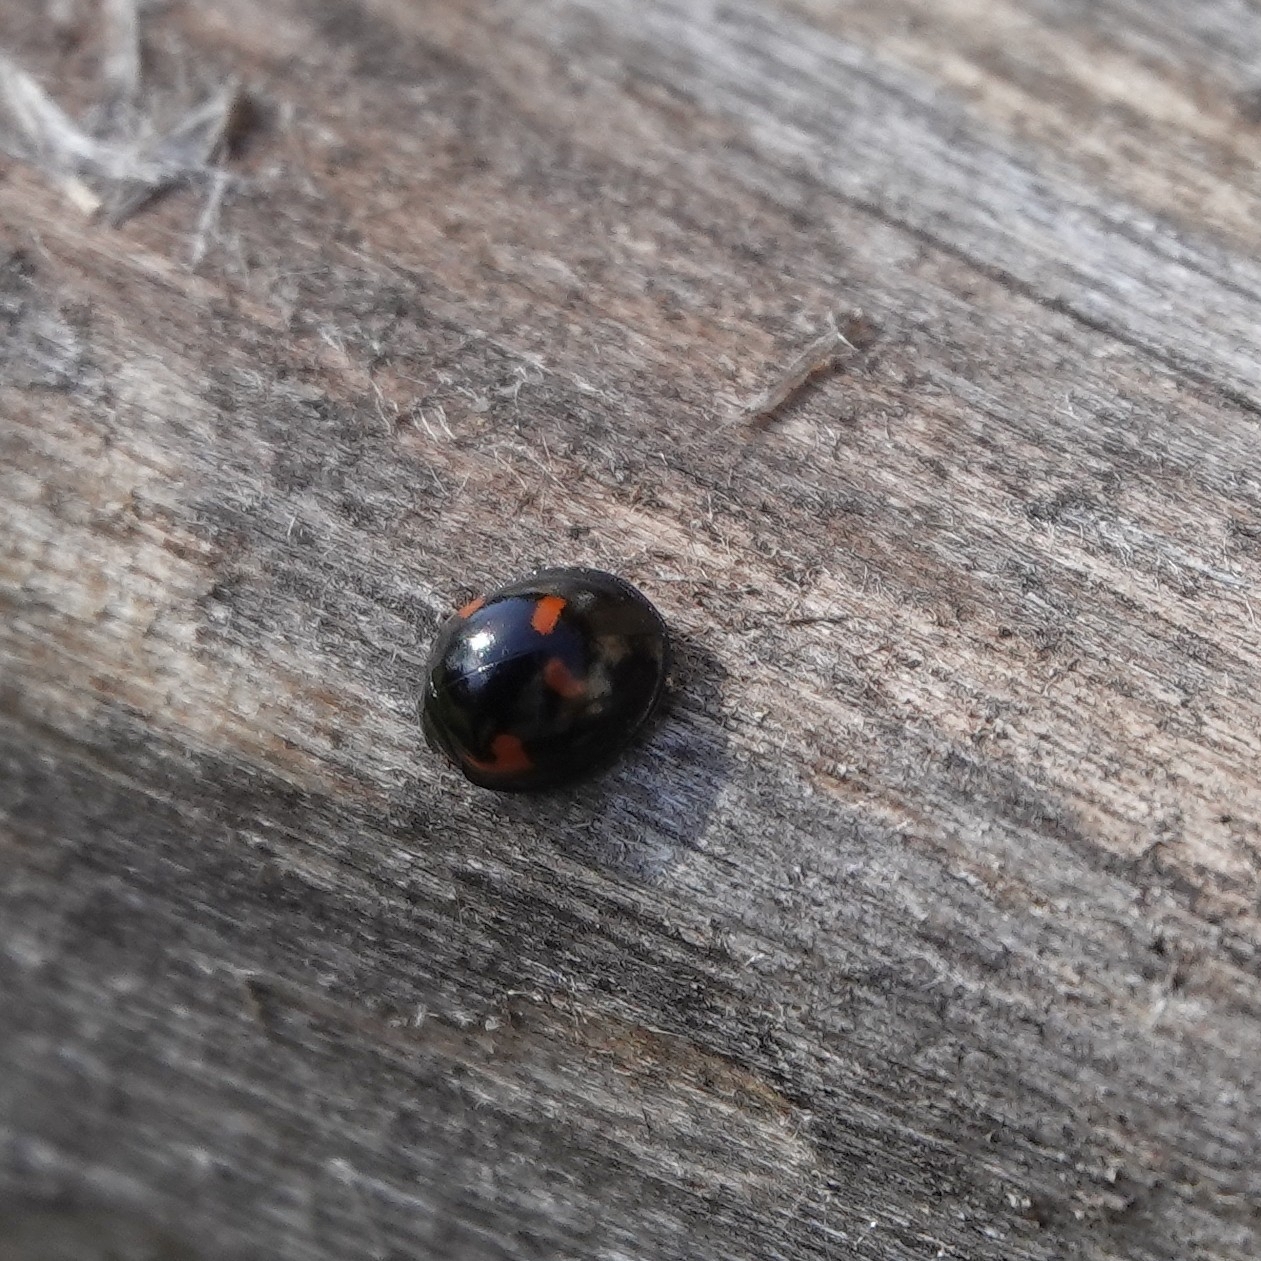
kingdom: Animalia
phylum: Arthropoda
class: Insecta
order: Coleoptera
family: Coccinellidae
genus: Brumus
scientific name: Brumus quadripustulatus
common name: Ladybird beetle
